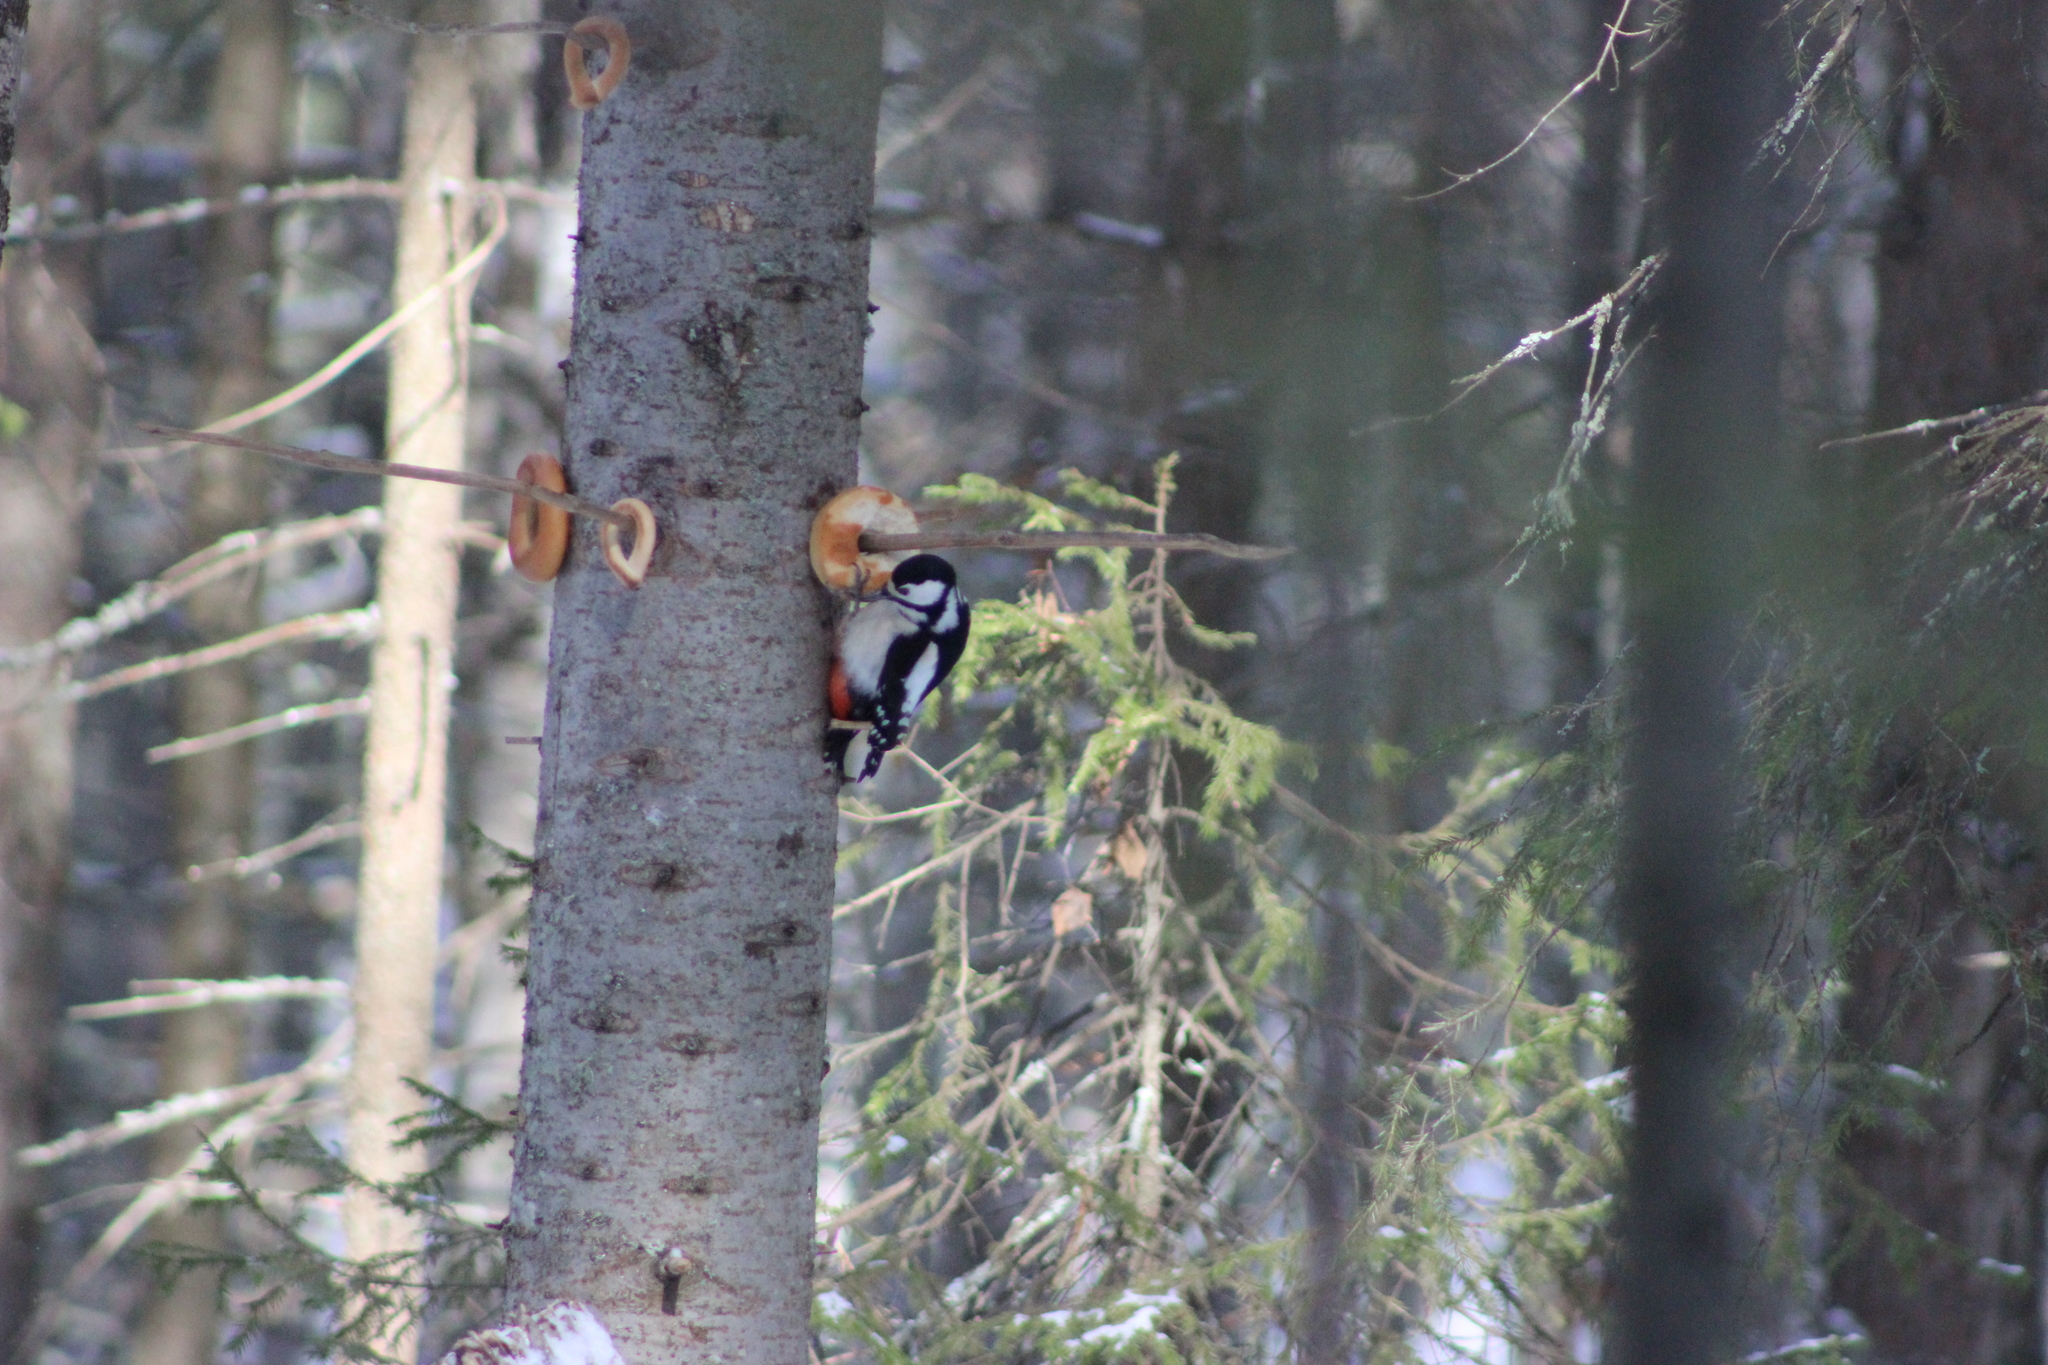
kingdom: Animalia
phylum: Chordata
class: Aves
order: Piciformes
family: Picidae
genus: Dendrocopos
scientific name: Dendrocopos major
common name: Great spotted woodpecker
